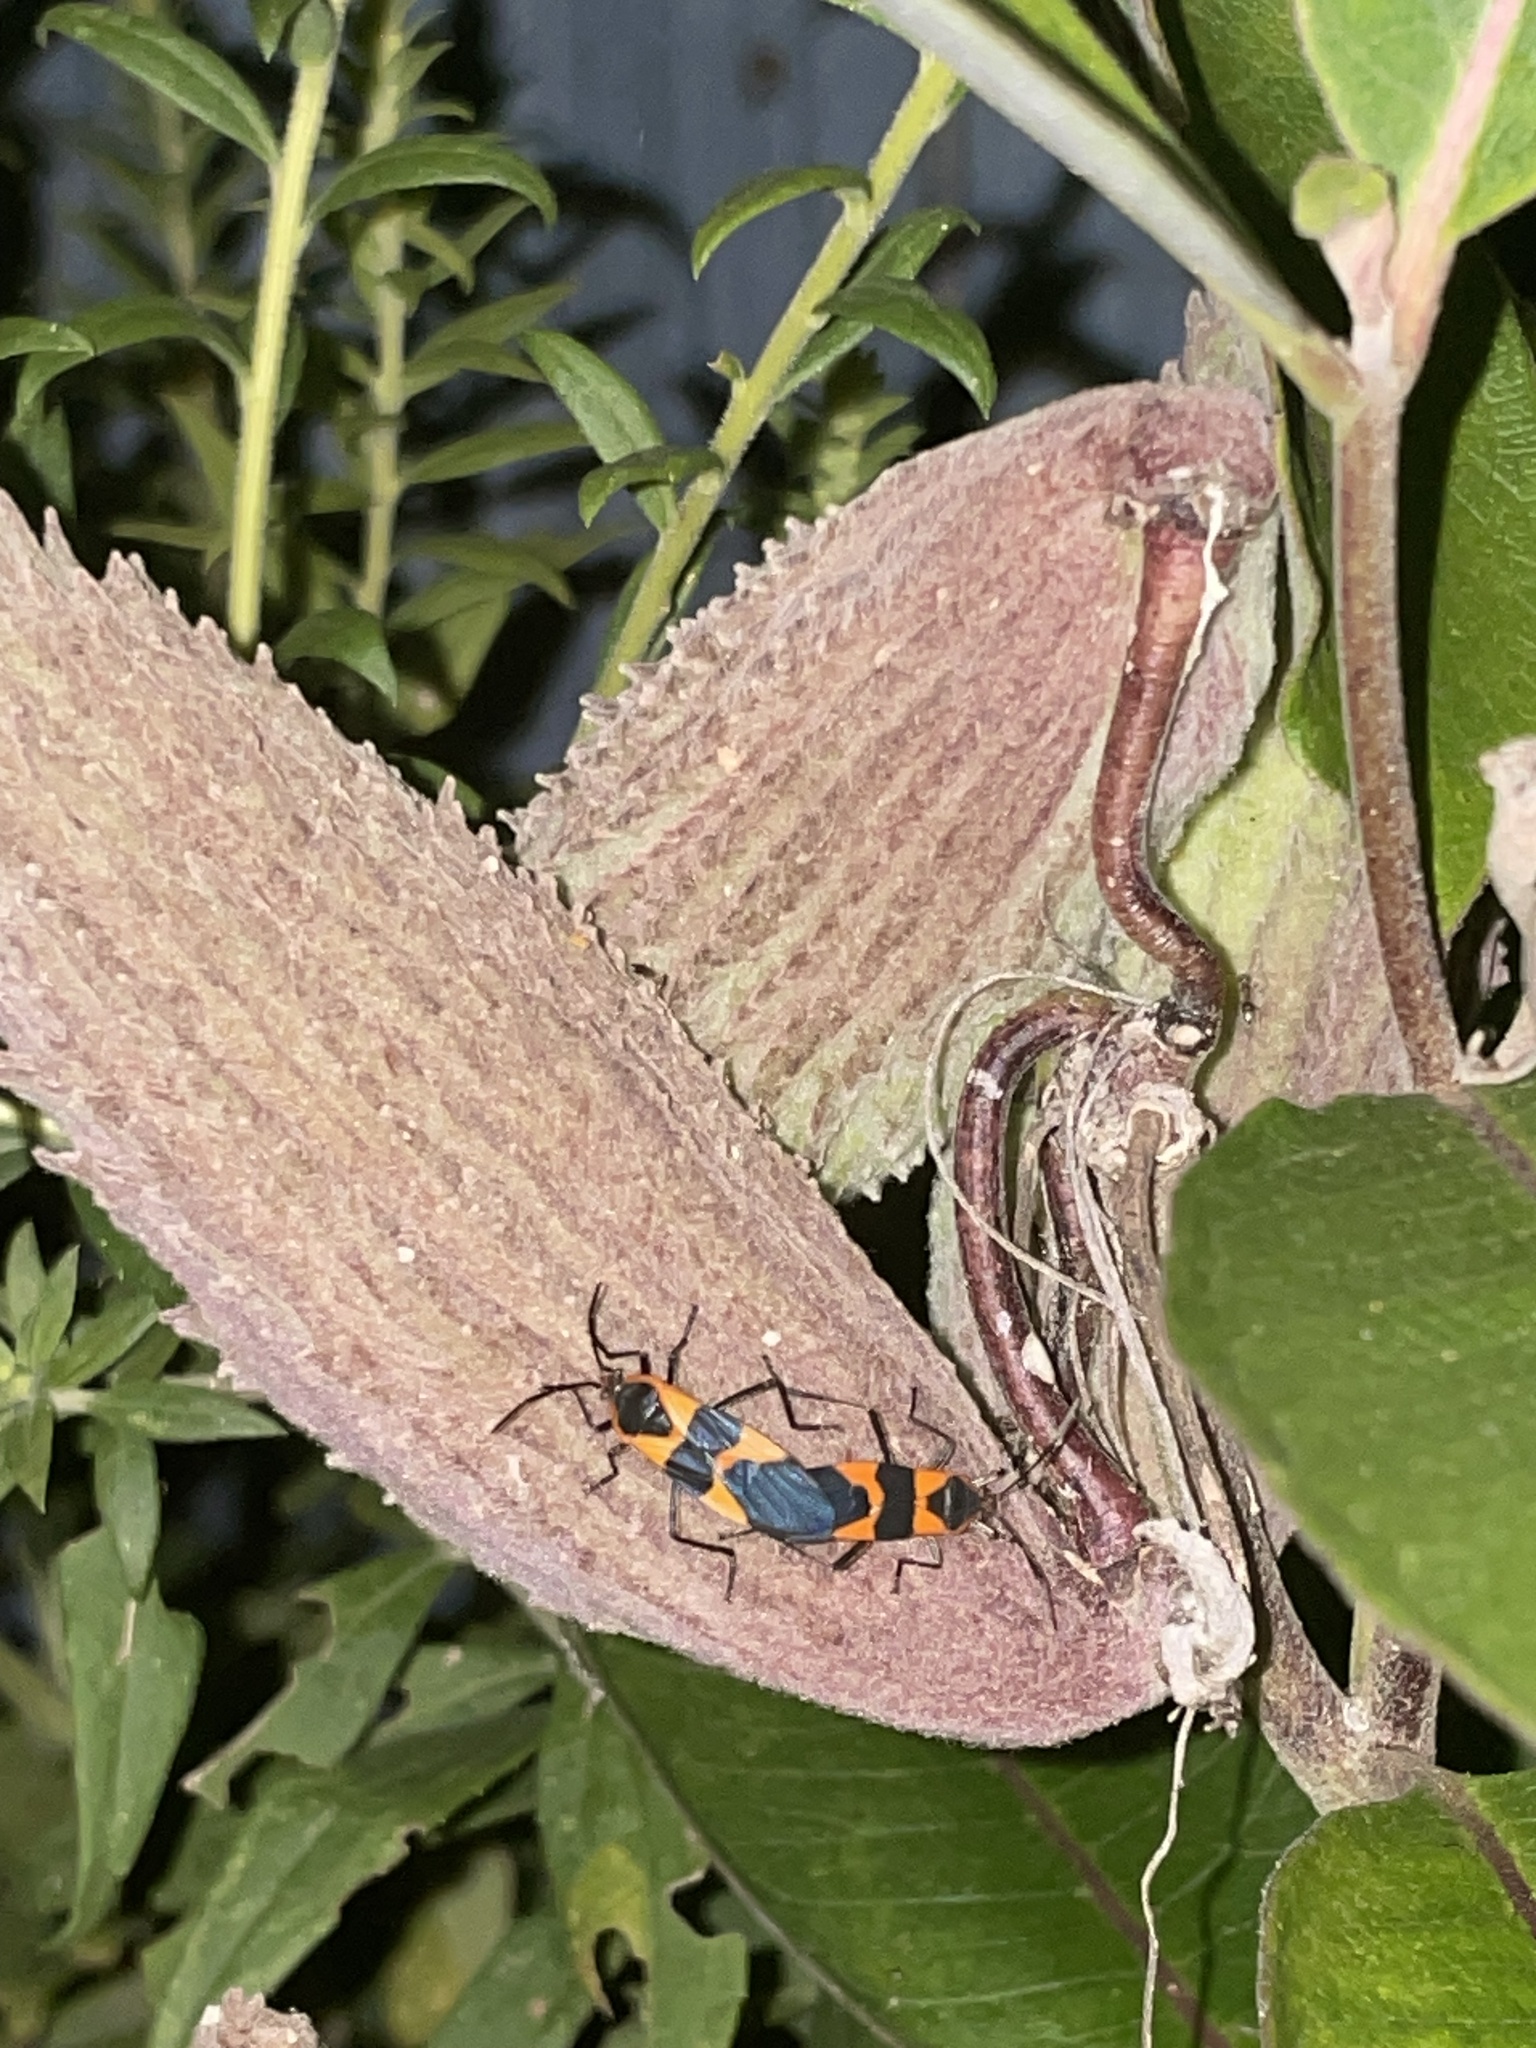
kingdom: Animalia
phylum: Arthropoda
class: Insecta
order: Hemiptera
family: Lygaeidae
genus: Oncopeltus
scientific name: Oncopeltus fasciatus
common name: Large milkweed bug
